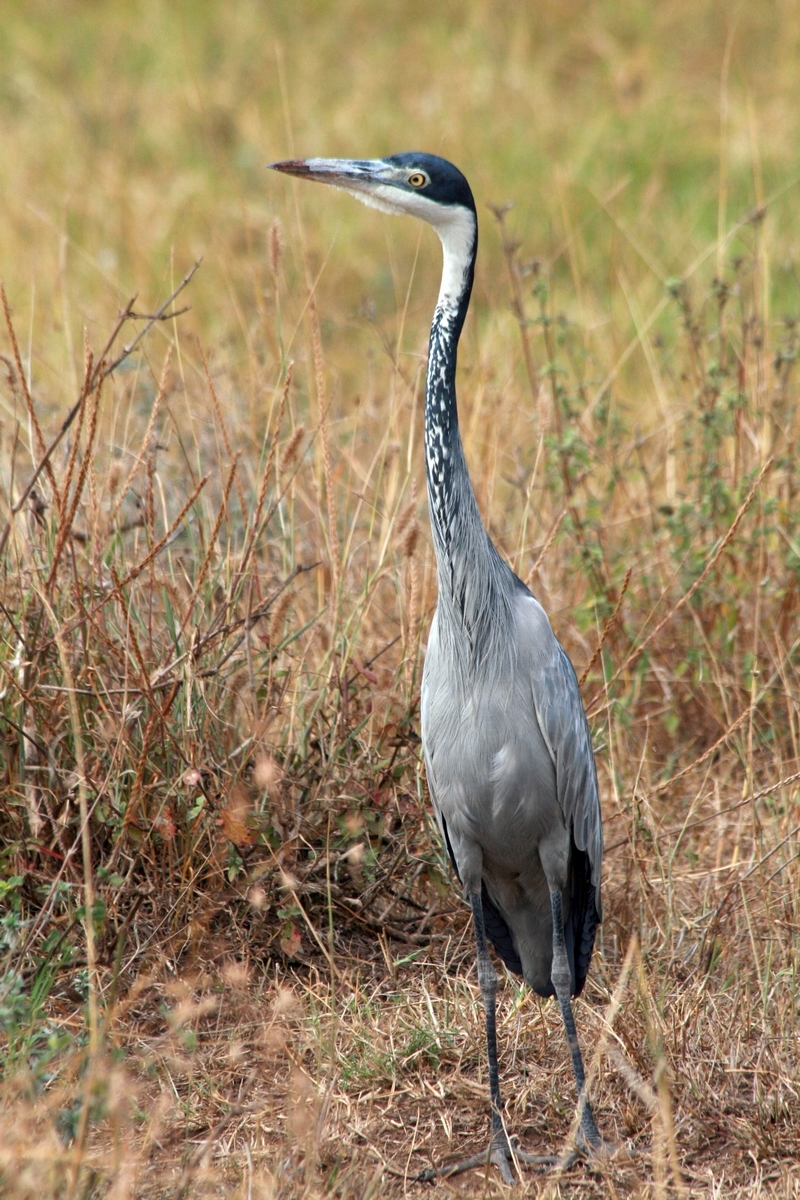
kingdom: Animalia
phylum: Chordata
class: Aves
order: Pelecaniformes
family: Ardeidae
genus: Ardea
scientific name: Ardea melanocephala
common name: Black-headed heron
